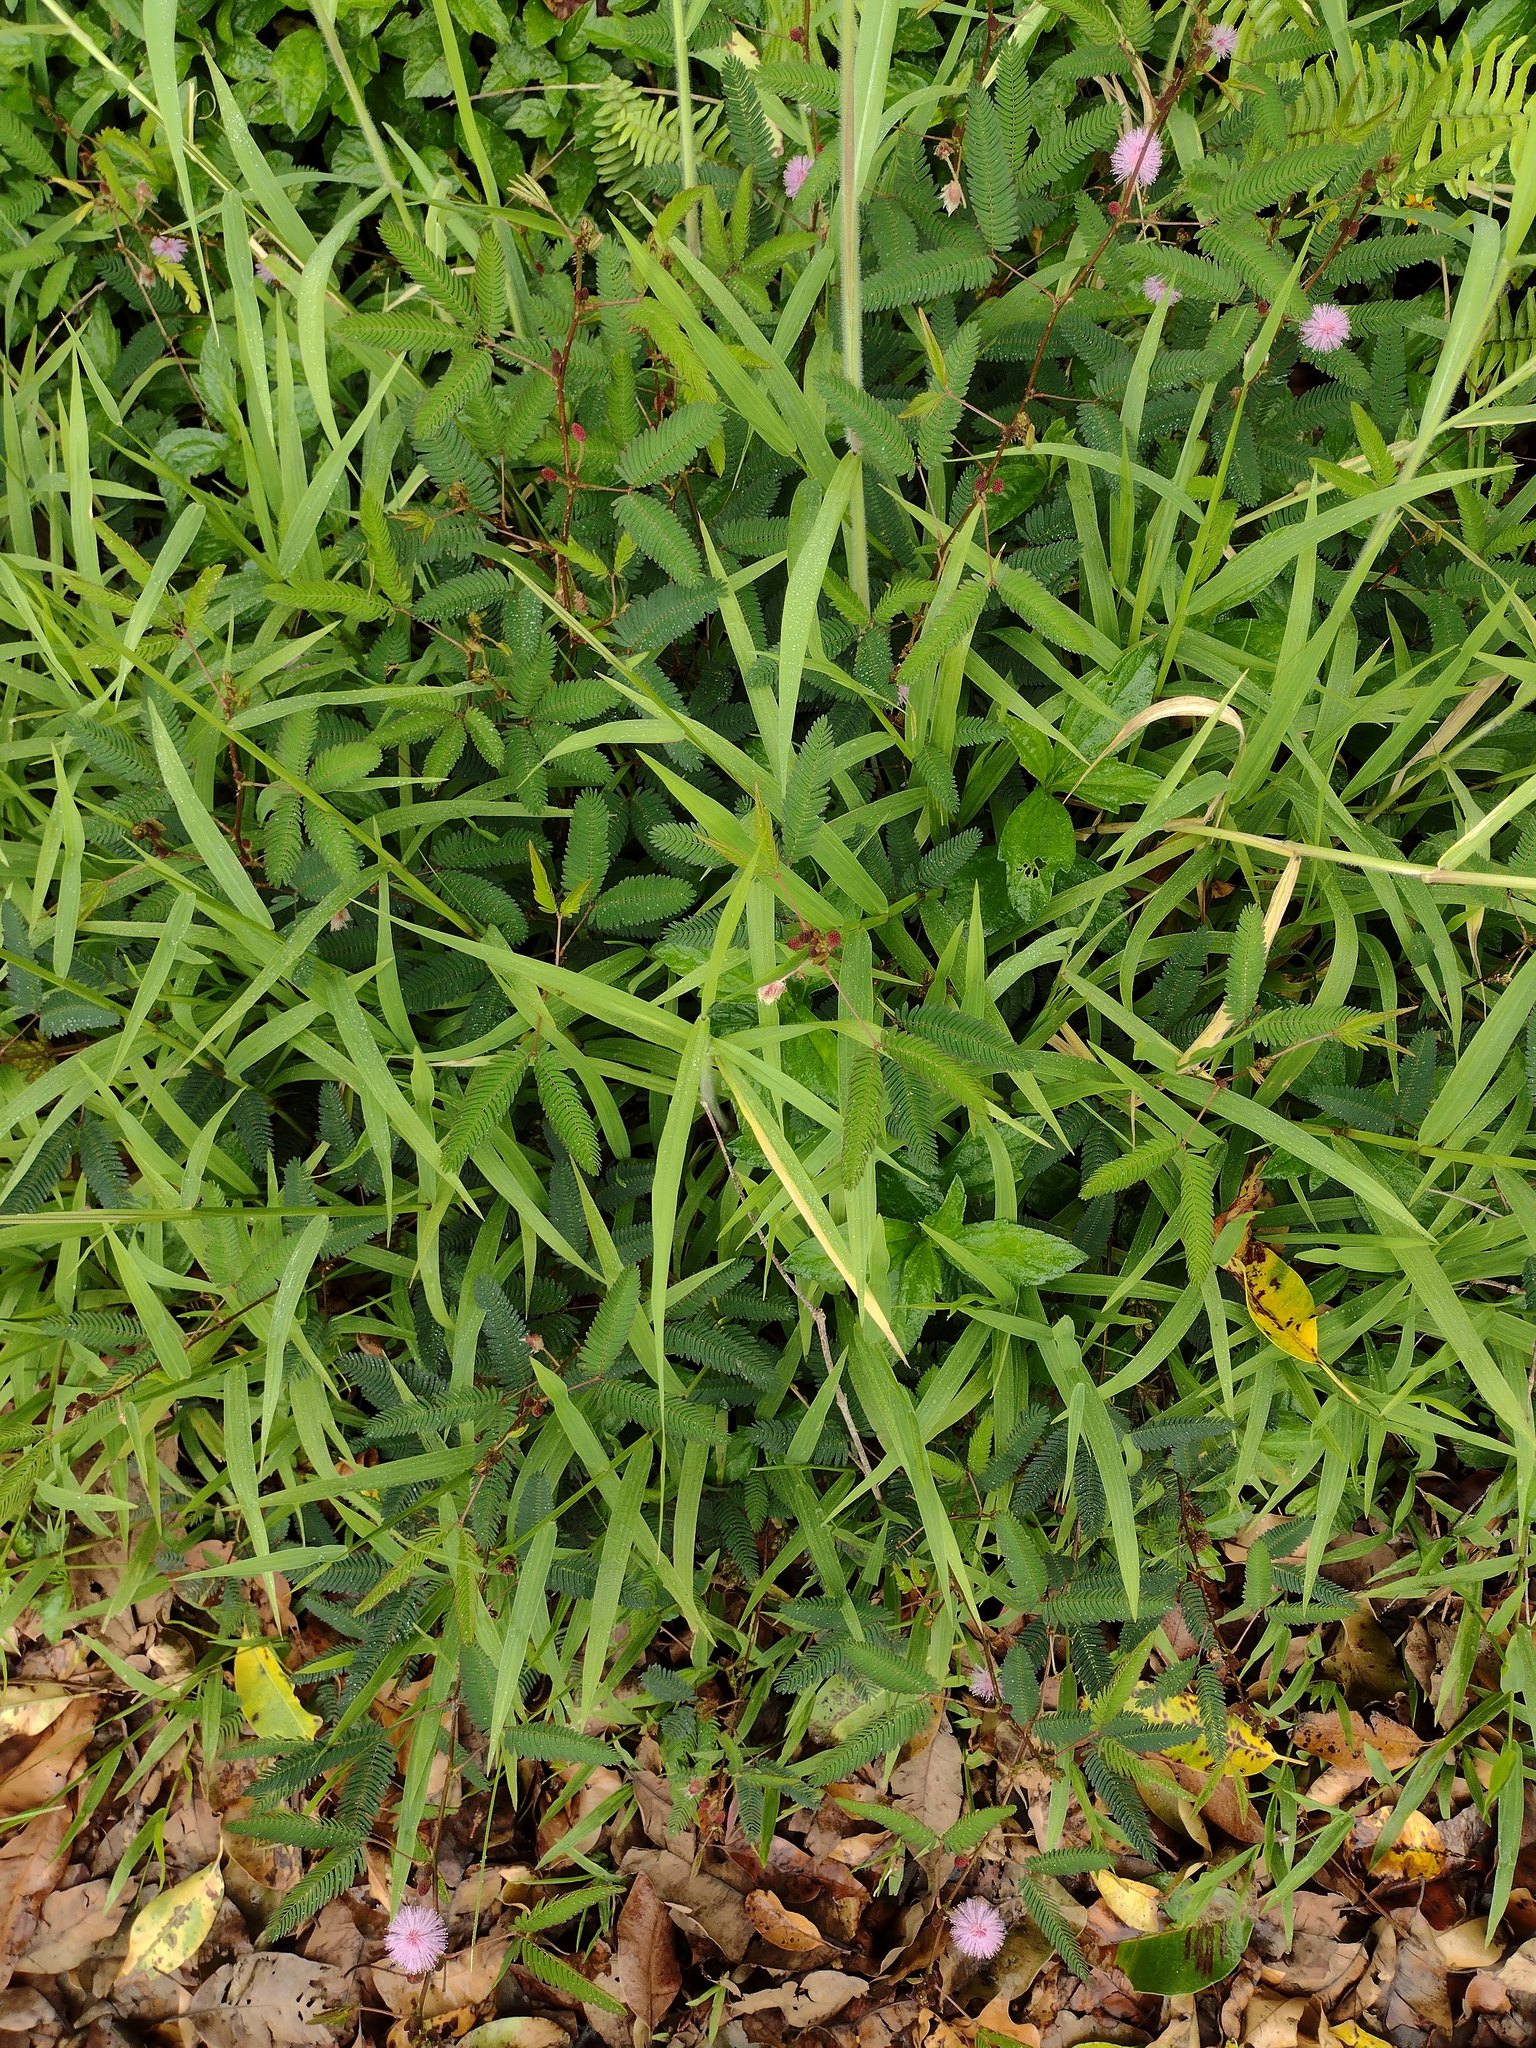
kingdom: Plantae
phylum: Tracheophyta
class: Magnoliopsida
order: Fabales
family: Fabaceae
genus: Mimosa
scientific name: Mimosa pudica
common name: Sensitive plant
